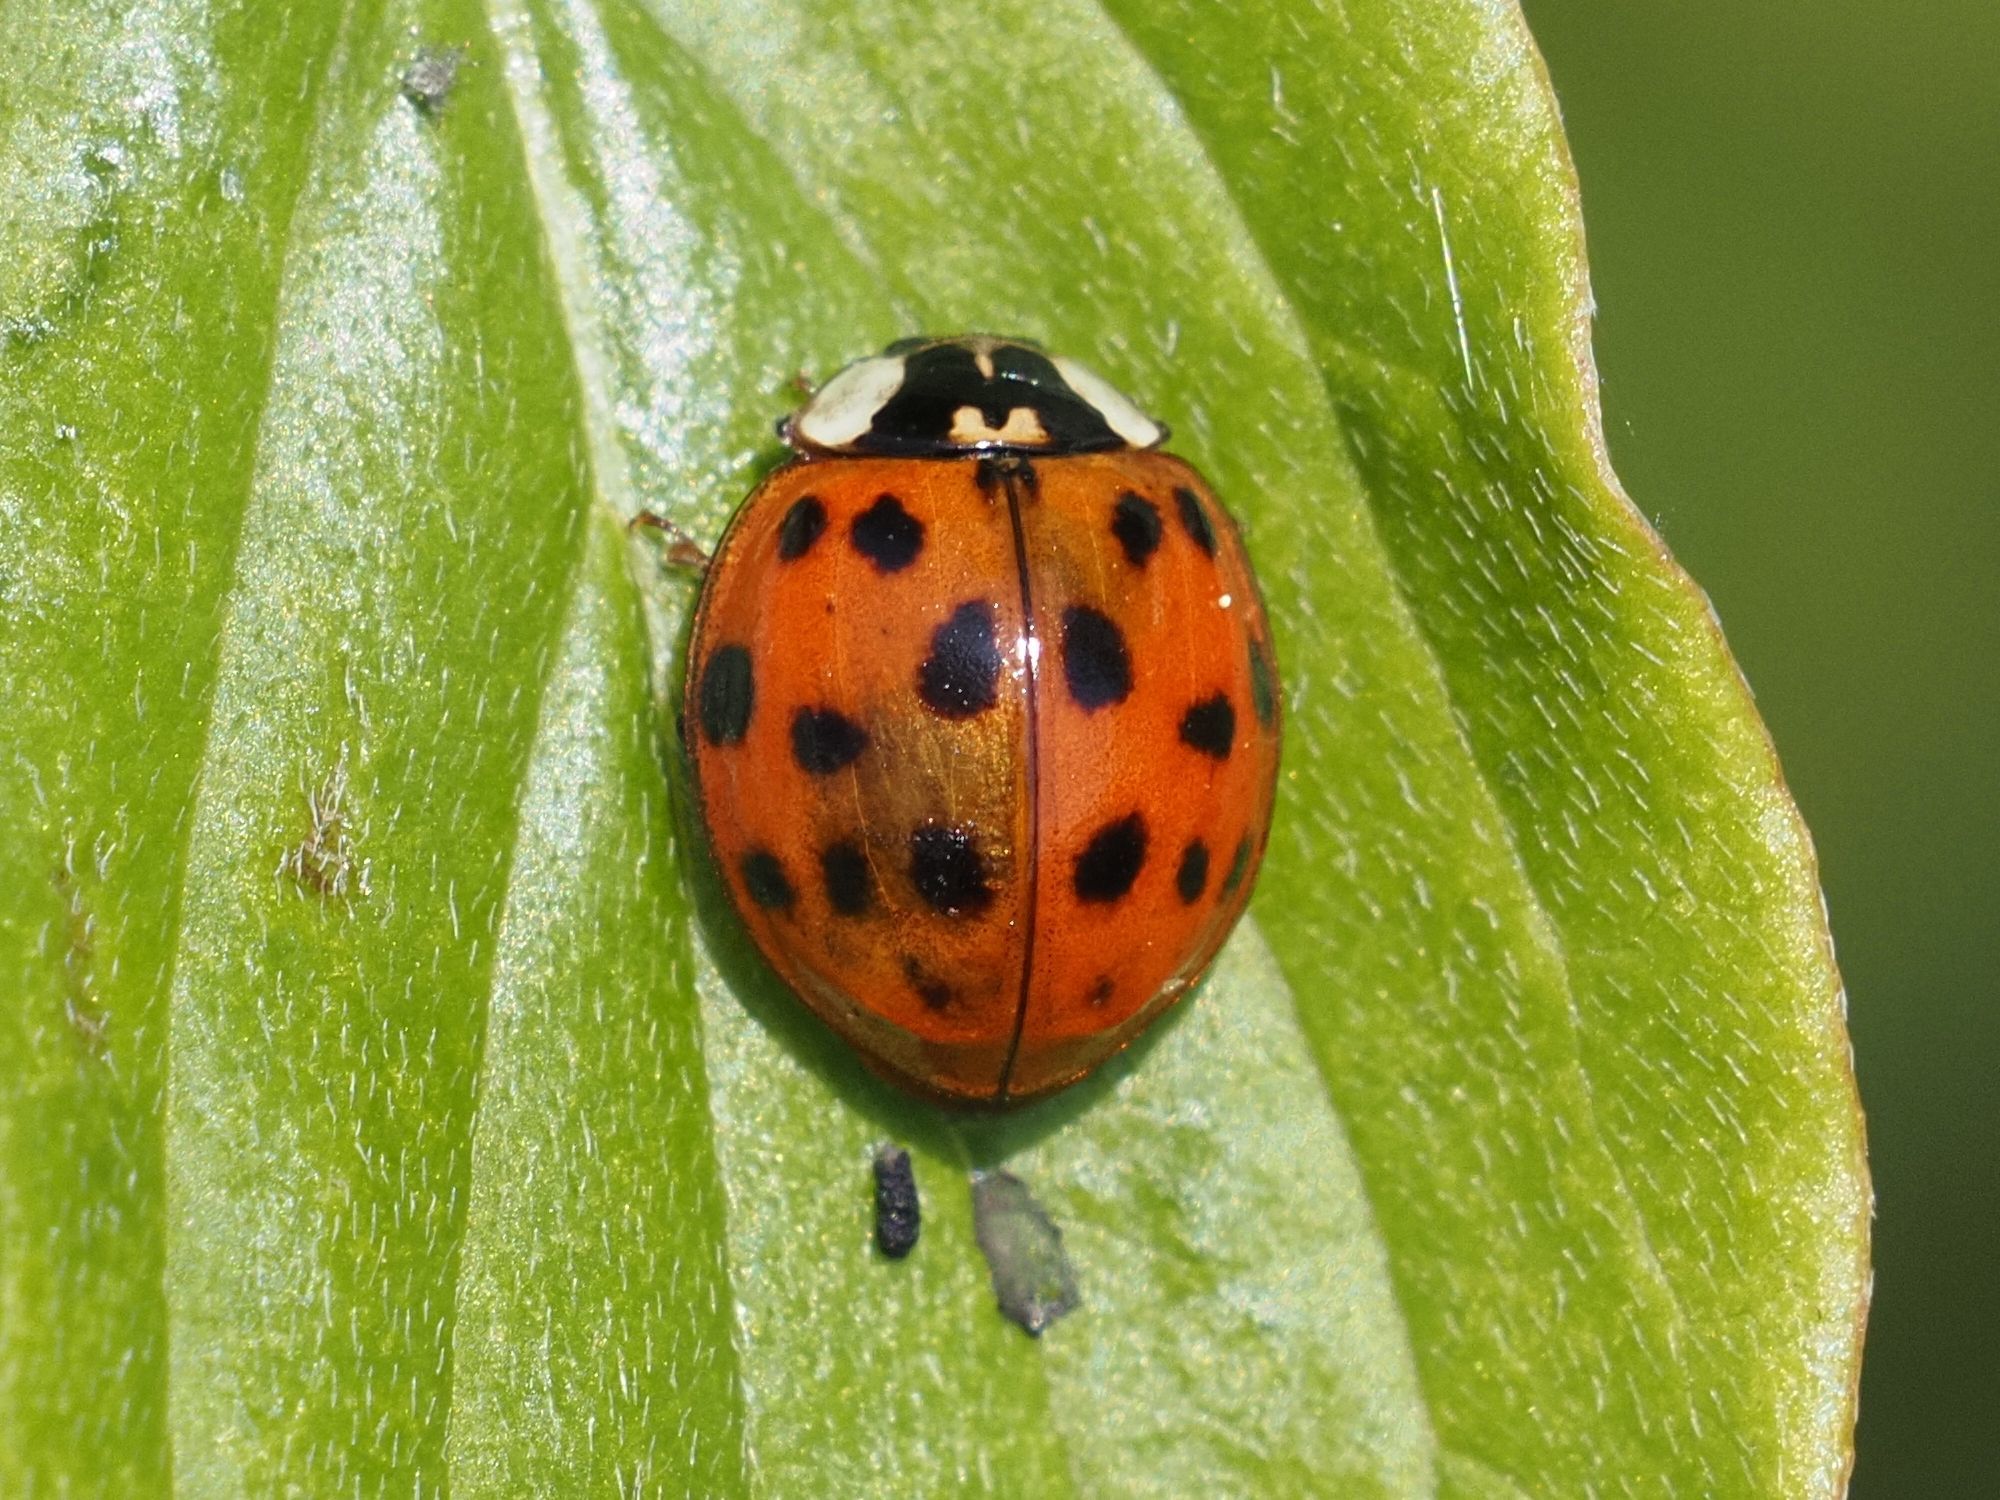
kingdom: Animalia
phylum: Arthropoda
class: Insecta
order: Coleoptera
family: Coccinellidae
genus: Harmonia
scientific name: Harmonia axyridis
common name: Harlequin ladybird
